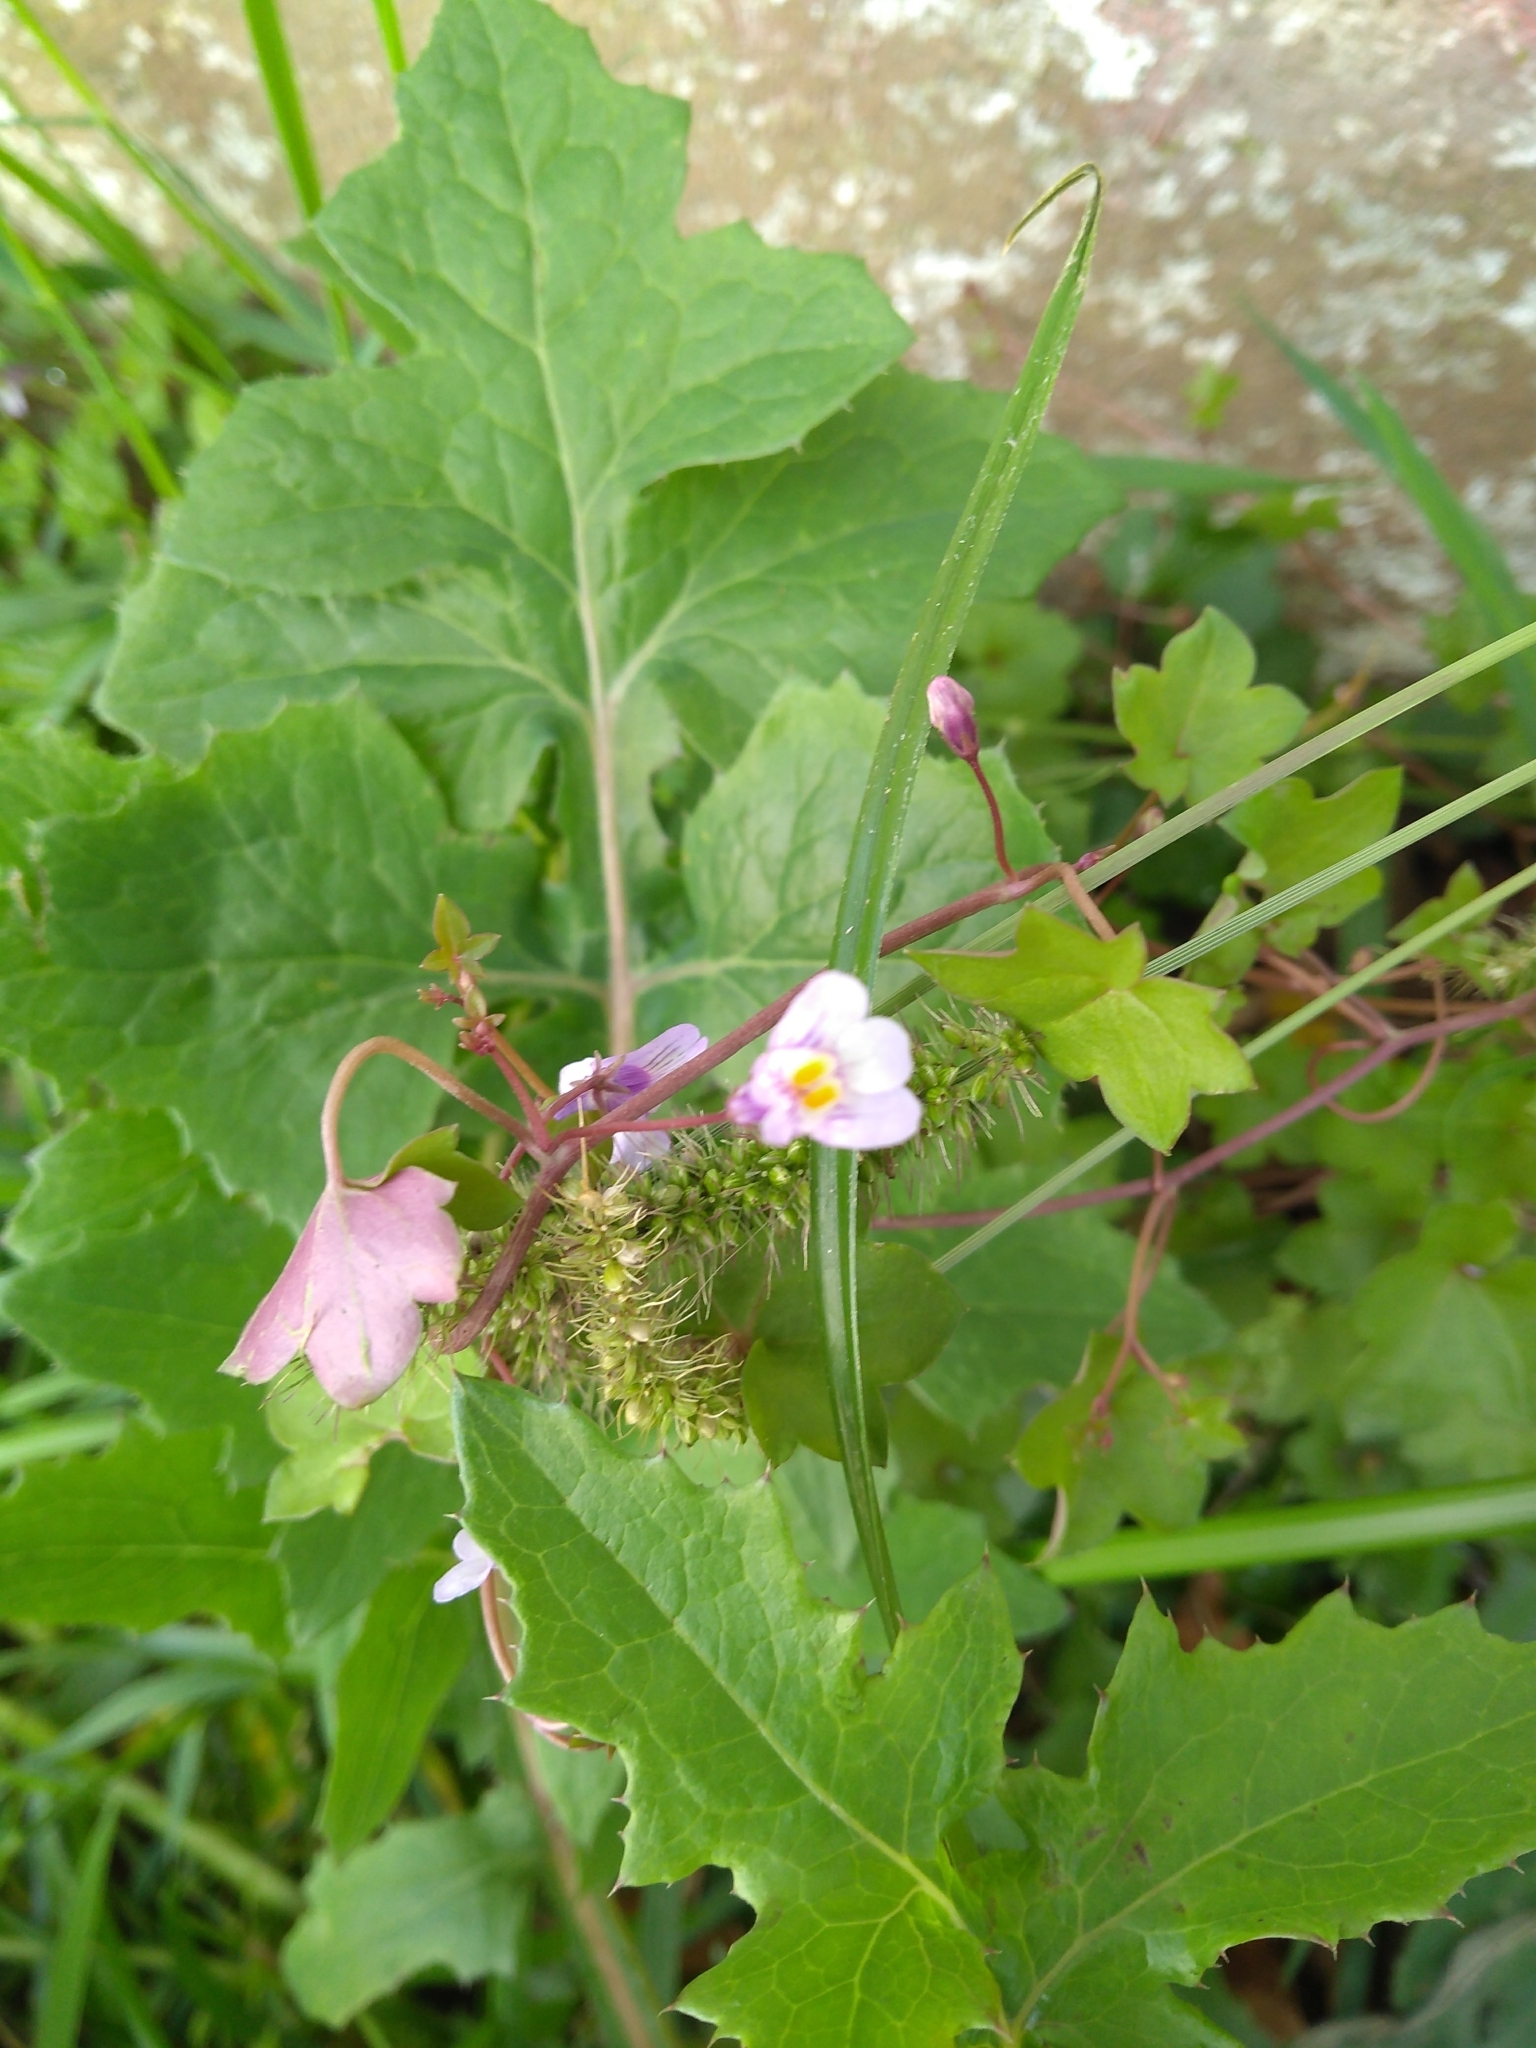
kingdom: Plantae
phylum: Tracheophyta
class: Magnoliopsida
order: Lamiales
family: Plantaginaceae
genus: Cymbalaria
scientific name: Cymbalaria muralis
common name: Ivy-leaved toadflax
